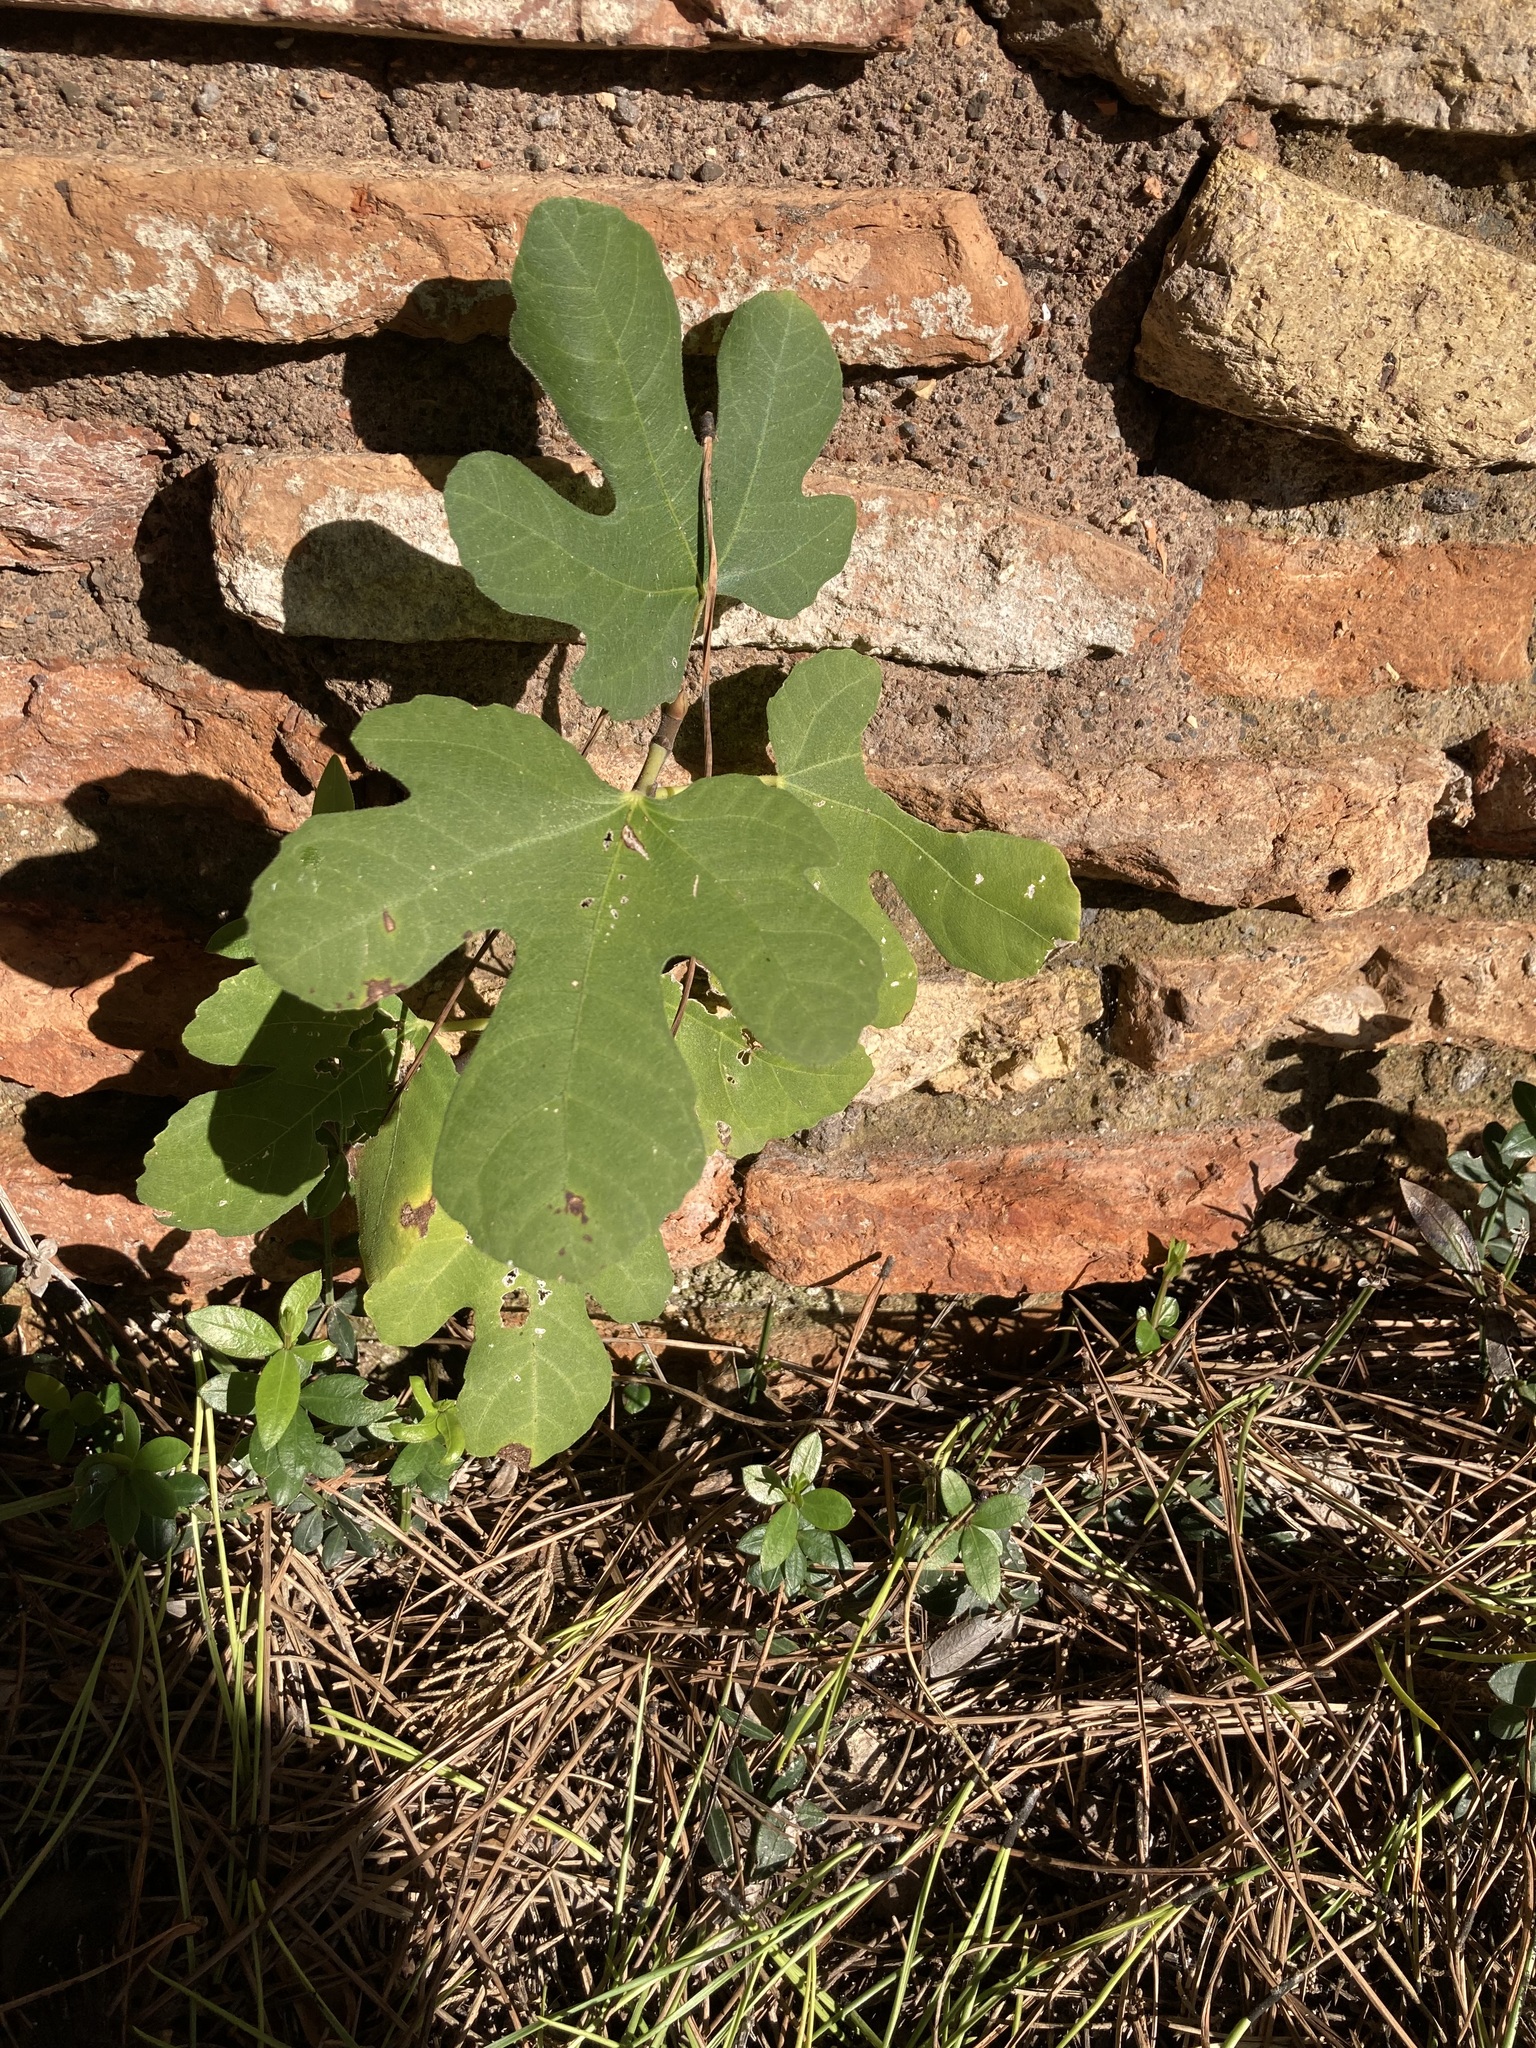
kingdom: Plantae
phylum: Tracheophyta
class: Magnoliopsida
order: Rosales
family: Moraceae
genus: Ficus
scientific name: Ficus carica
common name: Fig
